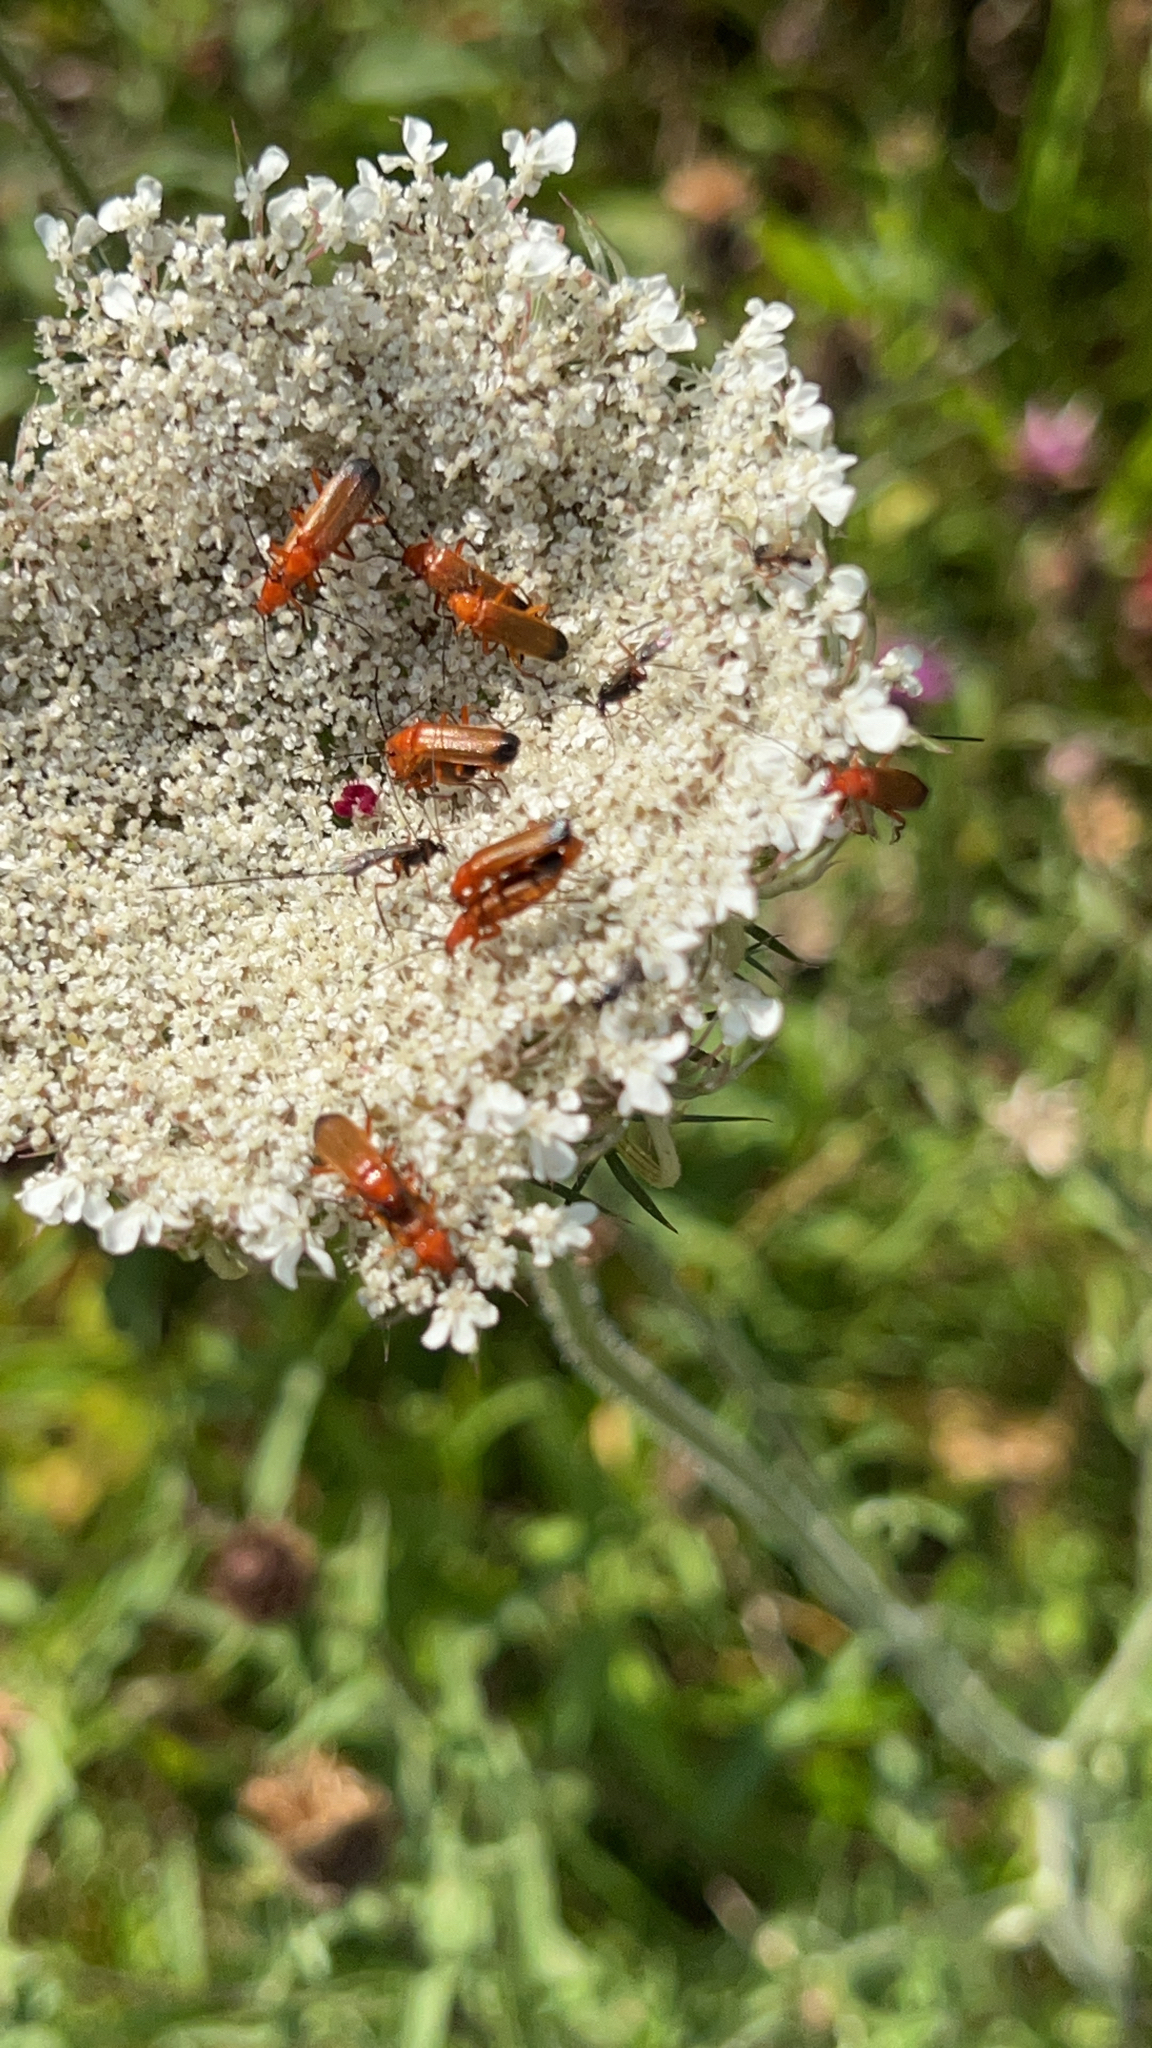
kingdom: Animalia
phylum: Arthropoda
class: Insecta
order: Coleoptera
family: Cantharidae
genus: Rhagonycha
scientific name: Rhagonycha fulva
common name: Common red soldier beetle
